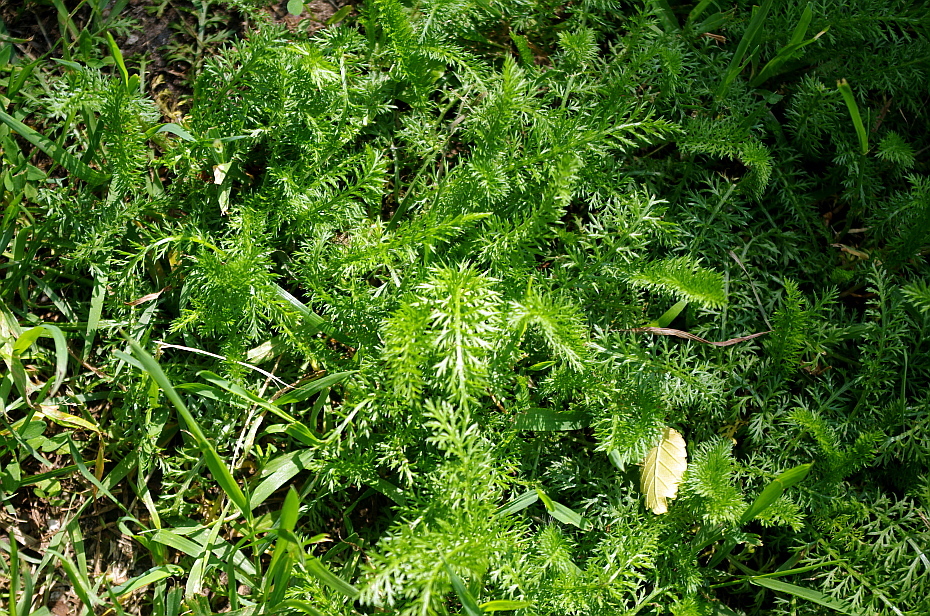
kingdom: Plantae
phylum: Tracheophyta
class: Magnoliopsida
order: Asterales
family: Asteraceae
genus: Achillea
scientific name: Achillea millefolium
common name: Yarrow
